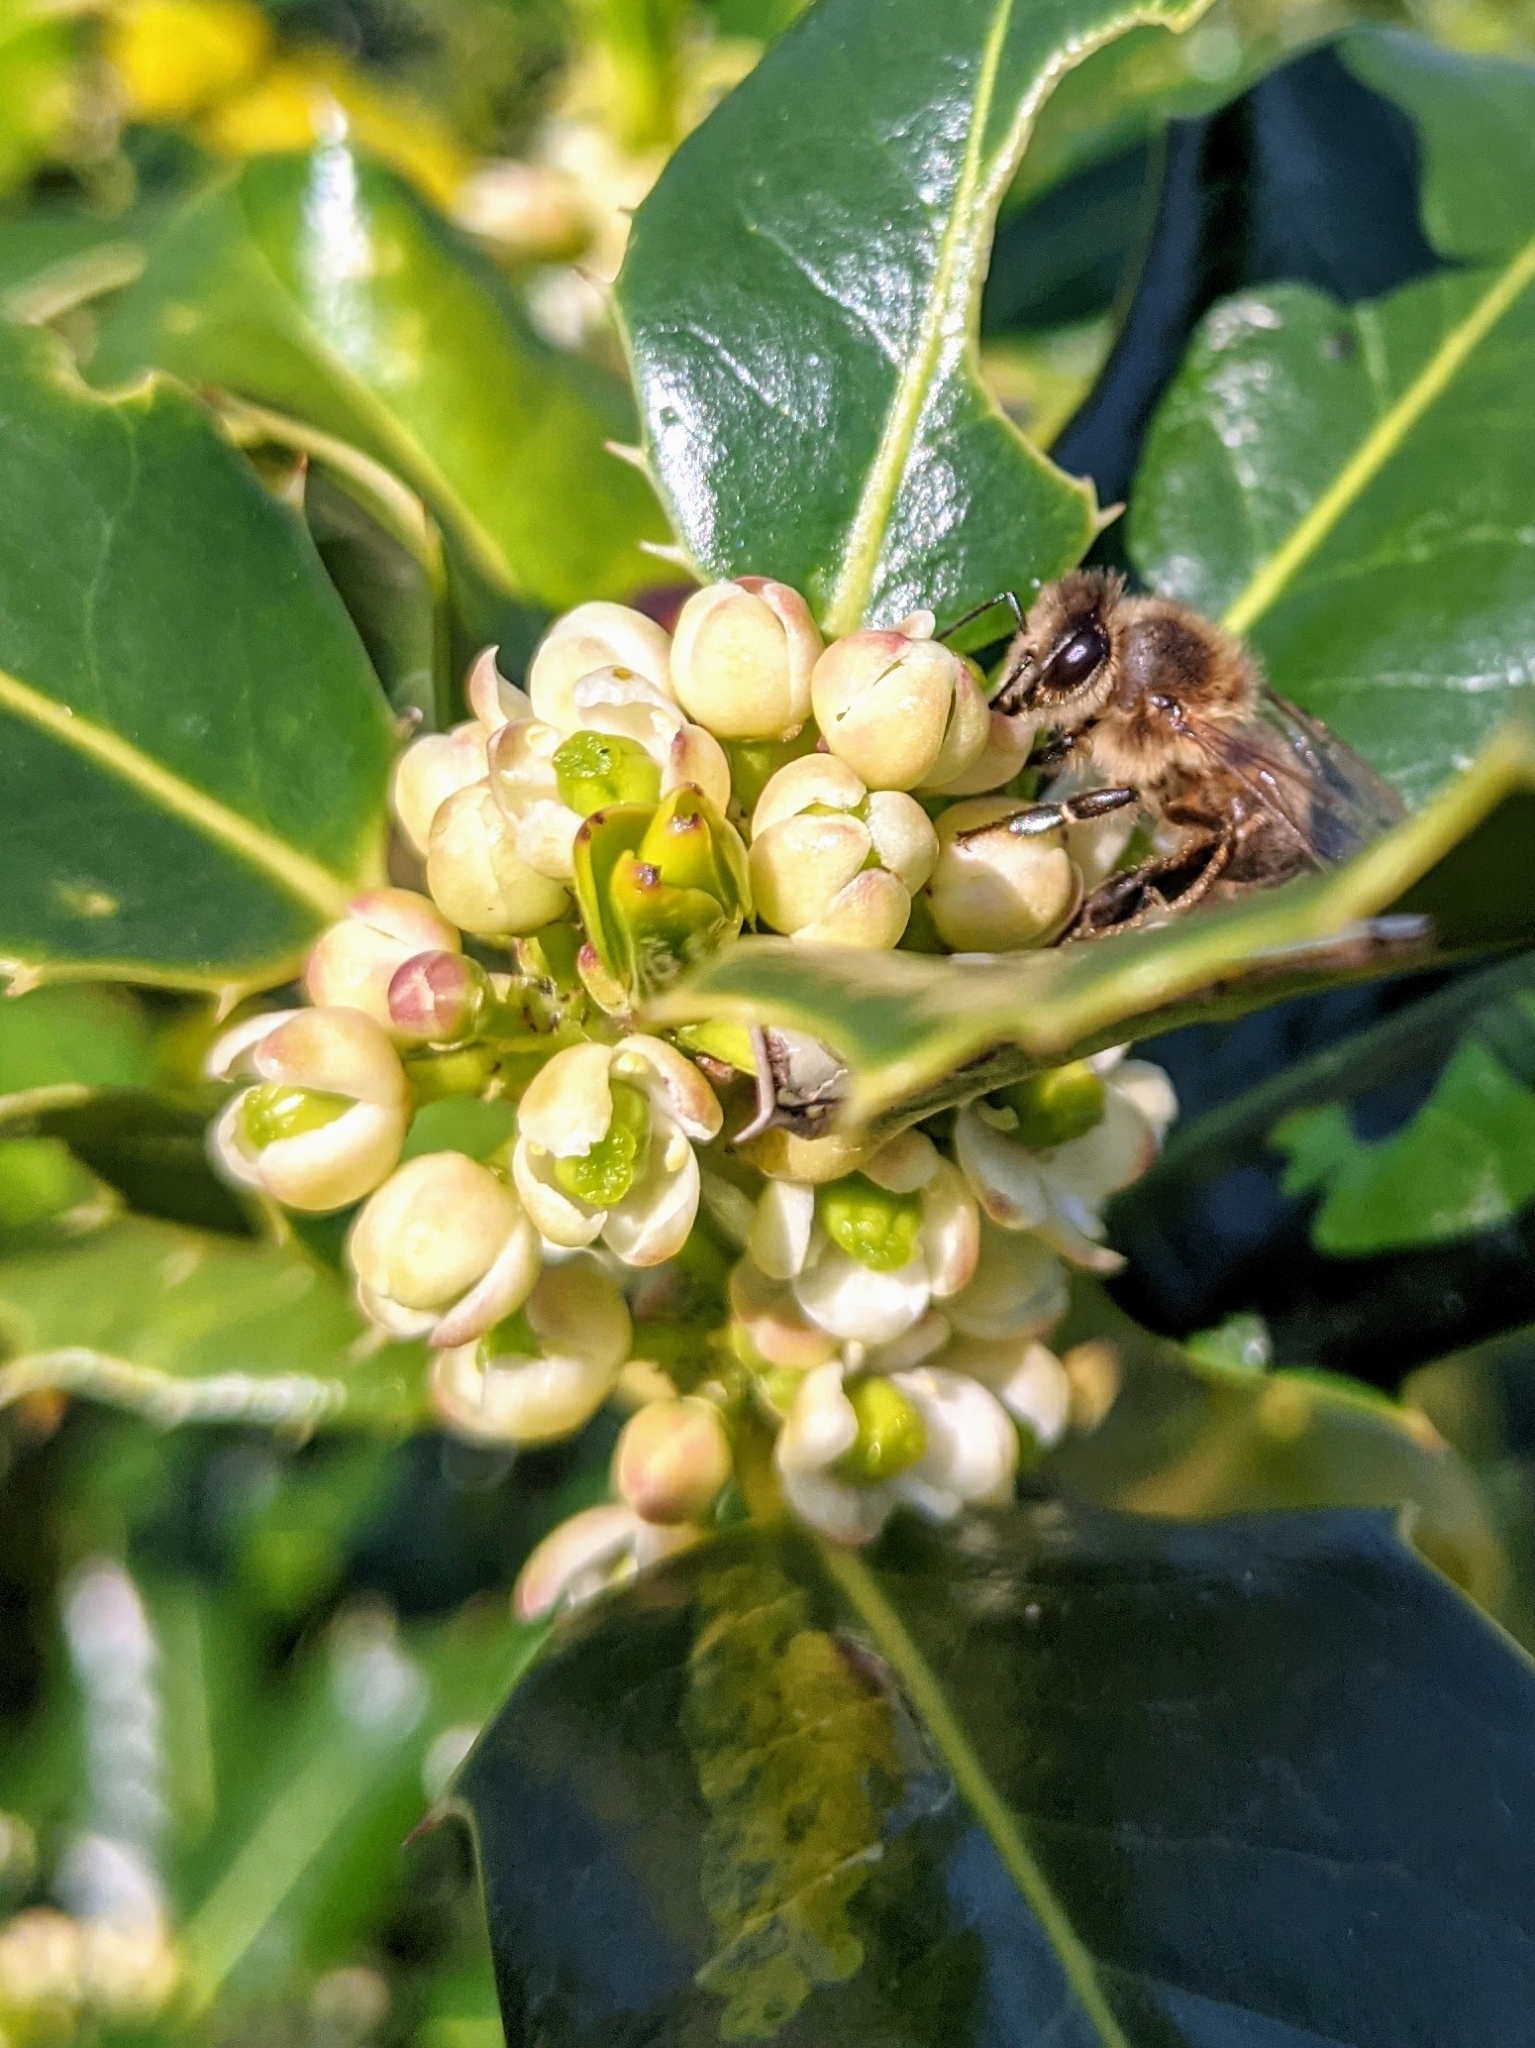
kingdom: Animalia
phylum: Arthropoda
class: Insecta
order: Hymenoptera
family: Apidae
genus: Apis
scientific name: Apis mellifera
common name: Honey bee
